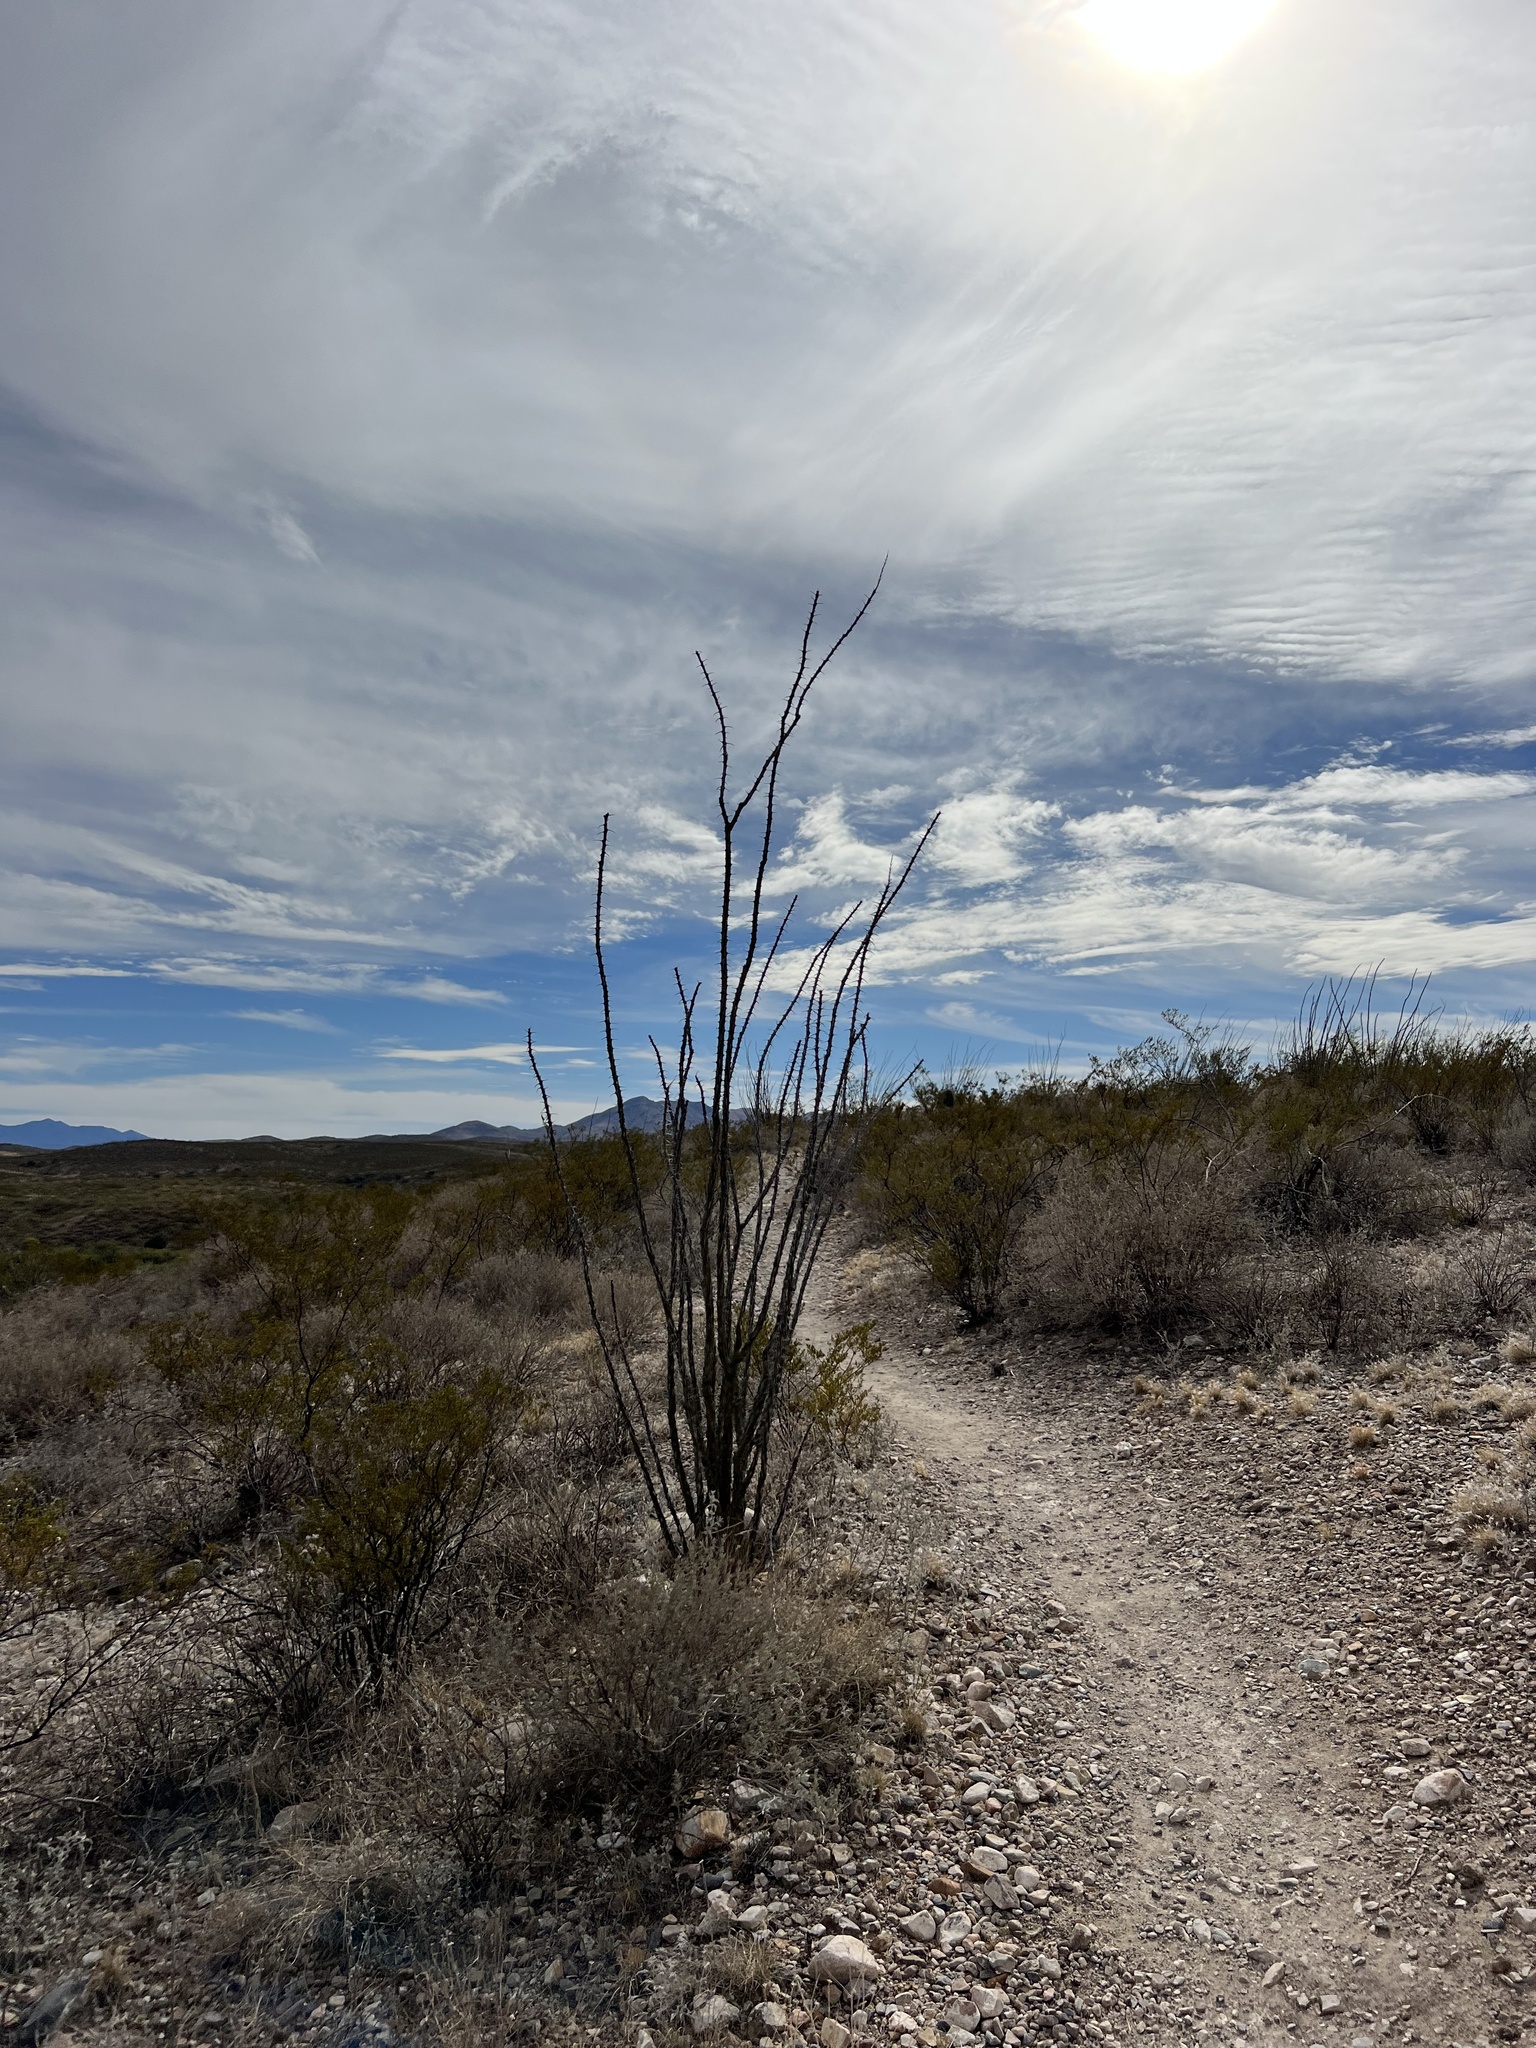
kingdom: Plantae
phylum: Tracheophyta
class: Magnoliopsida
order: Ericales
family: Fouquieriaceae
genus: Fouquieria
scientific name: Fouquieria splendens
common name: Vine-cactus
